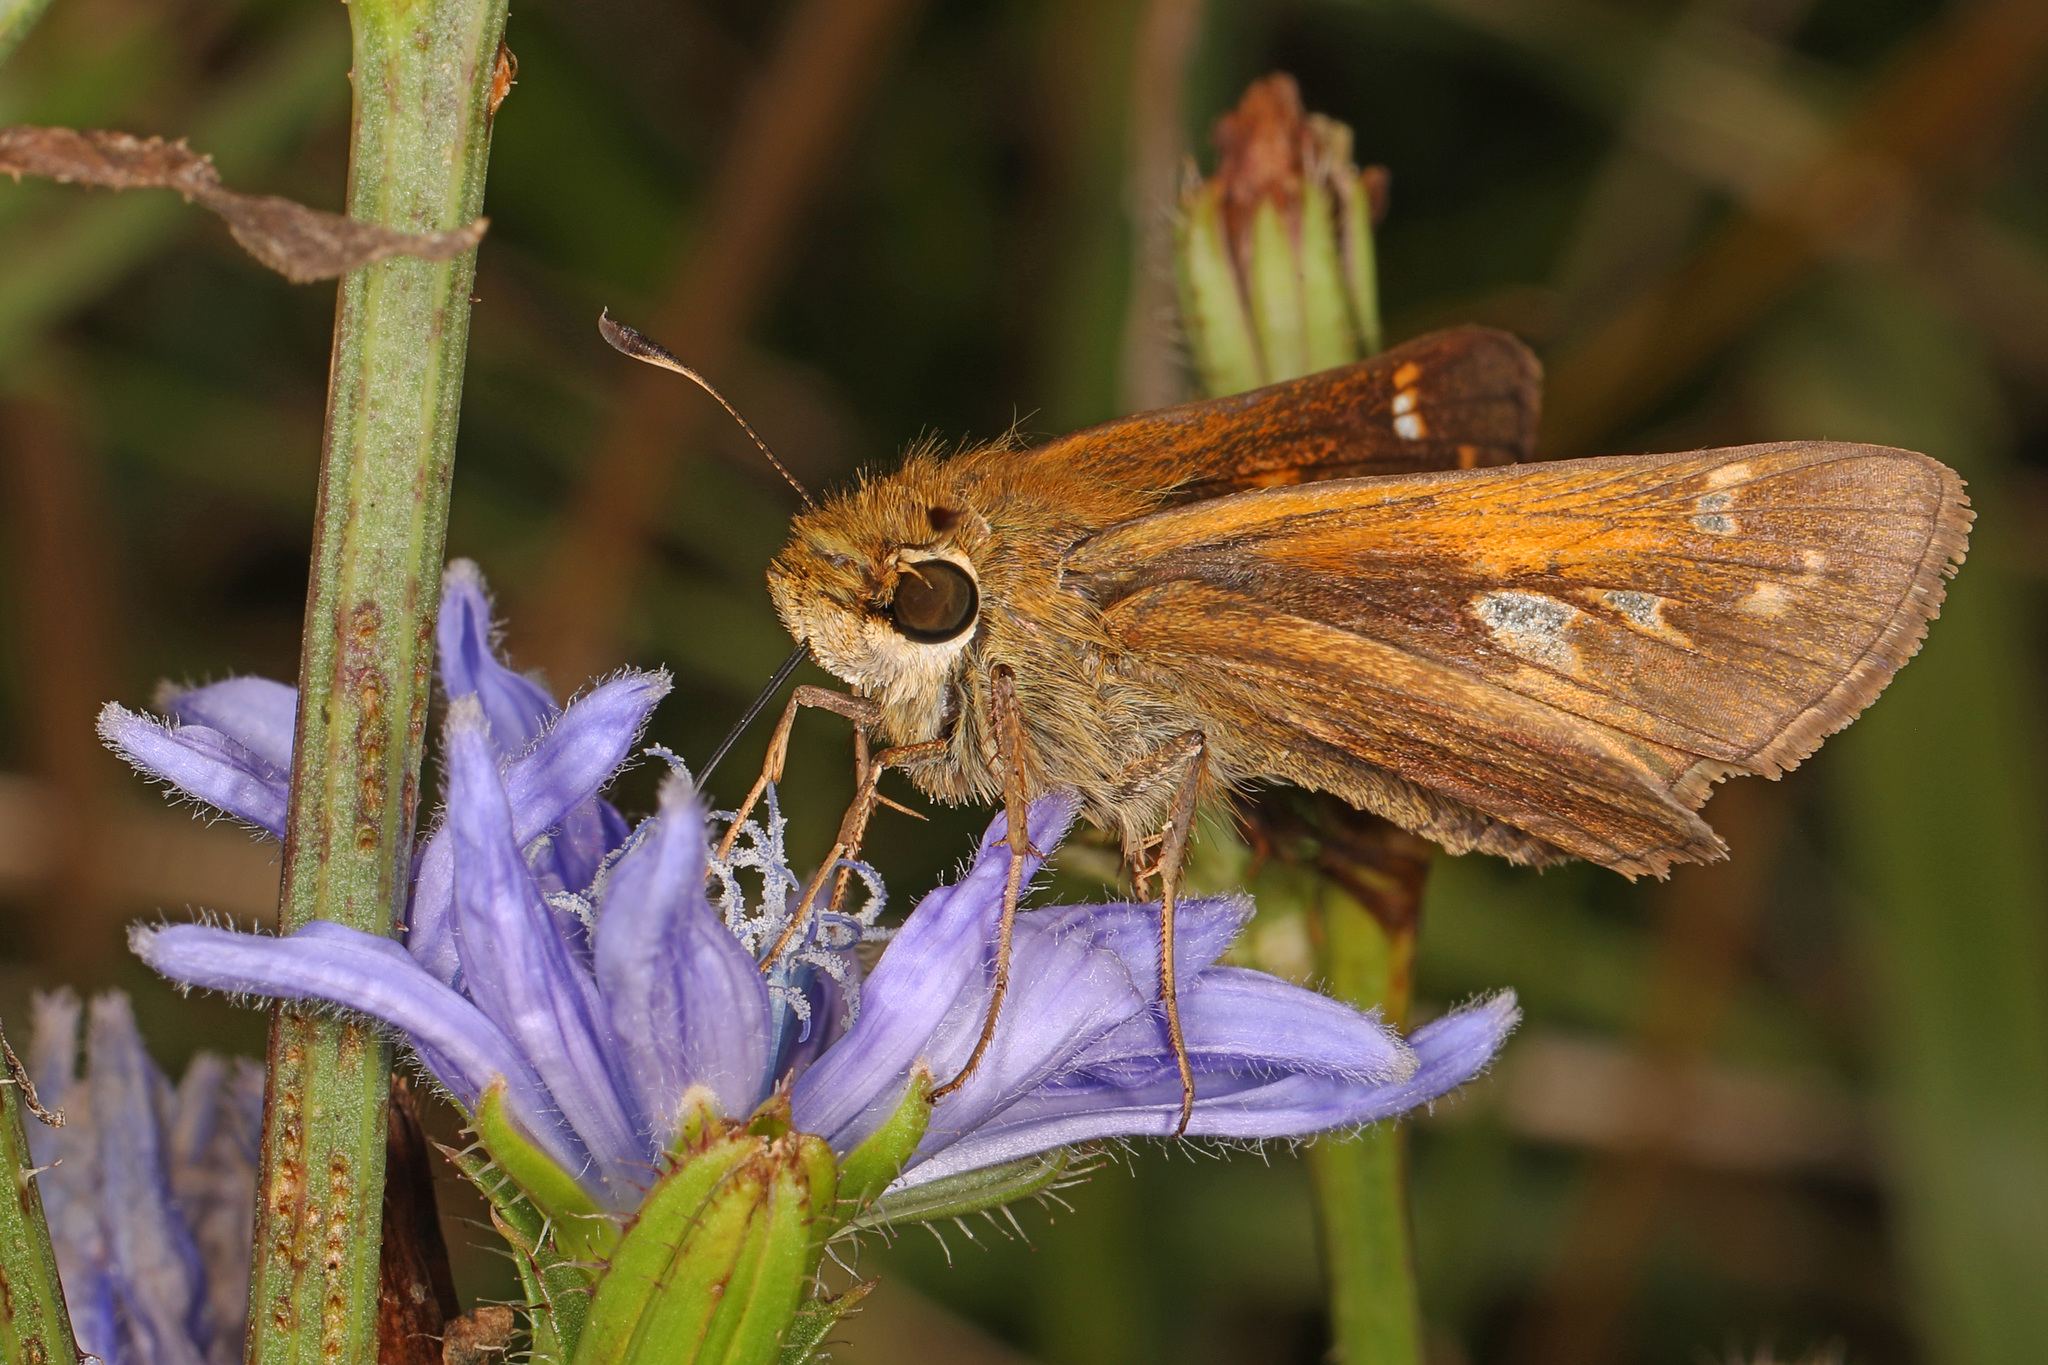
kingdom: Animalia
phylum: Arthropoda
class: Insecta
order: Lepidoptera
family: Hesperiidae
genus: Atalopedes
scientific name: Atalopedes
